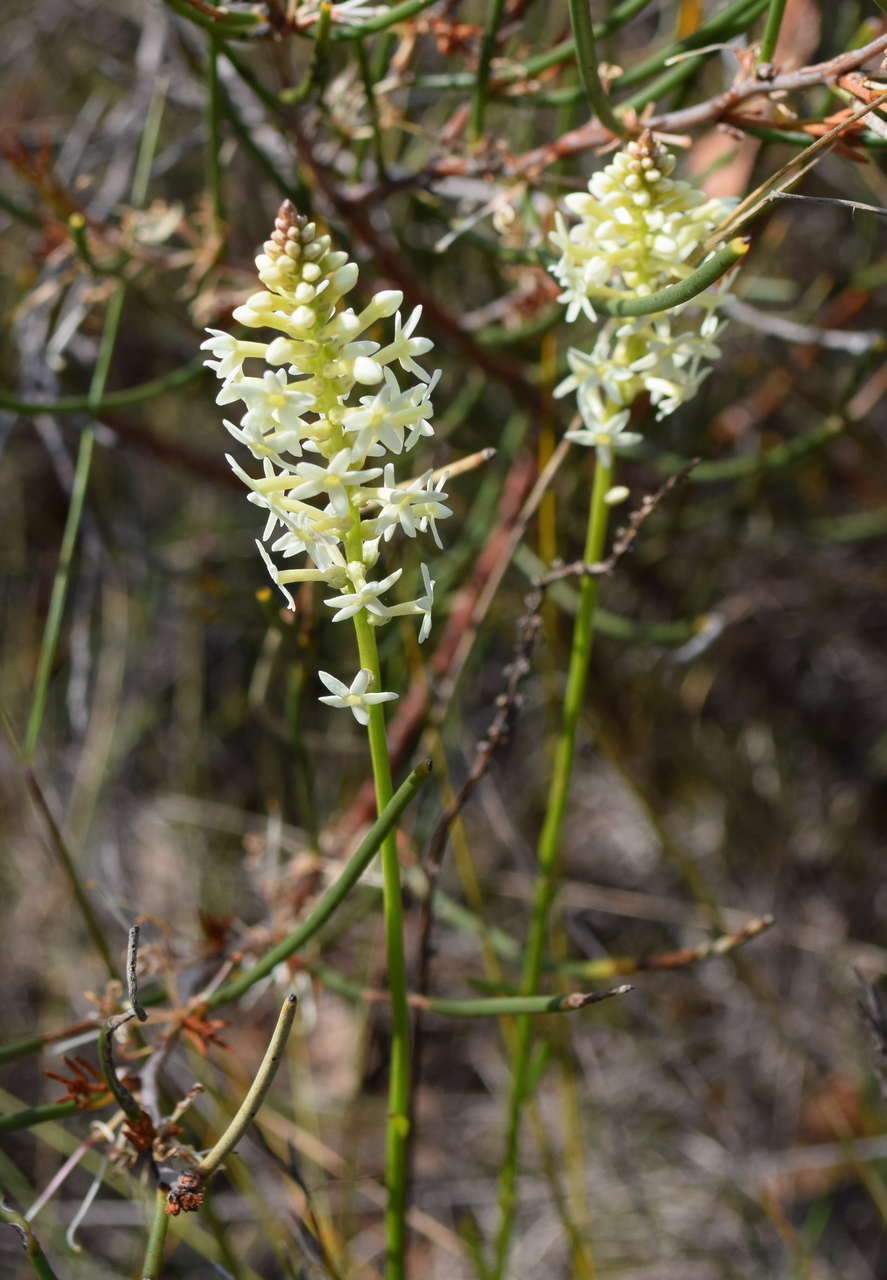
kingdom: Plantae
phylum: Tracheophyta
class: Magnoliopsida
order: Celastrales
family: Celastraceae
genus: Stackhousia
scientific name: Stackhousia monogyna
